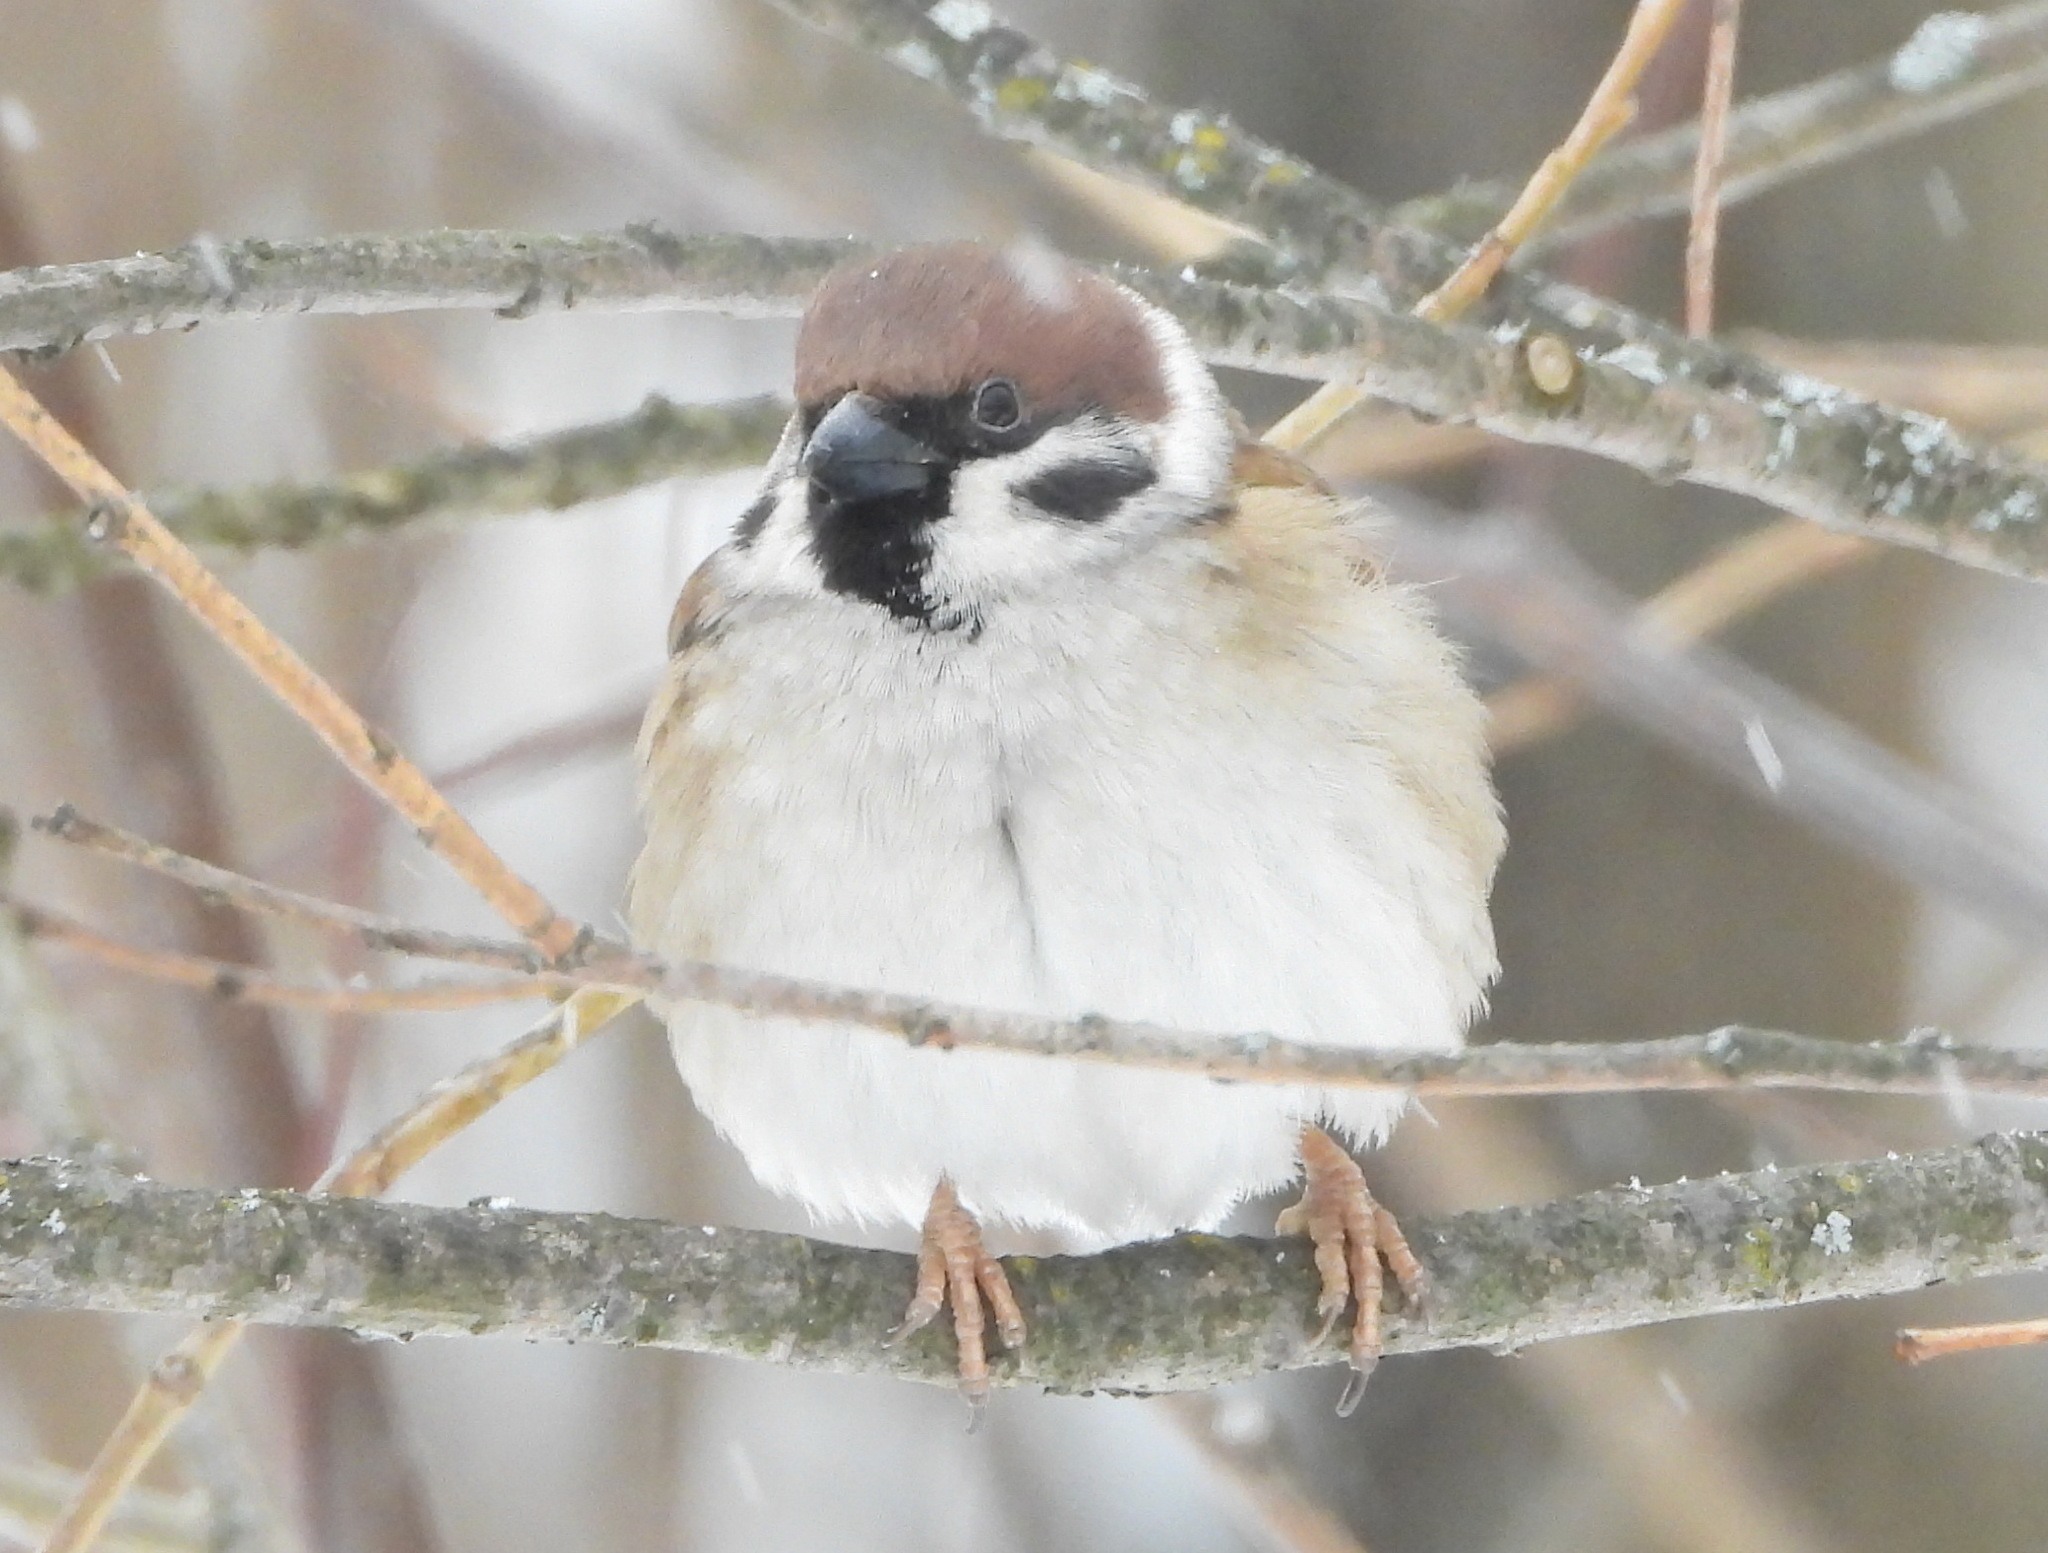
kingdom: Animalia
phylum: Chordata
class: Aves
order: Passeriformes
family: Passeridae
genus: Passer
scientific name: Passer montanus
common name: Eurasian tree sparrow
